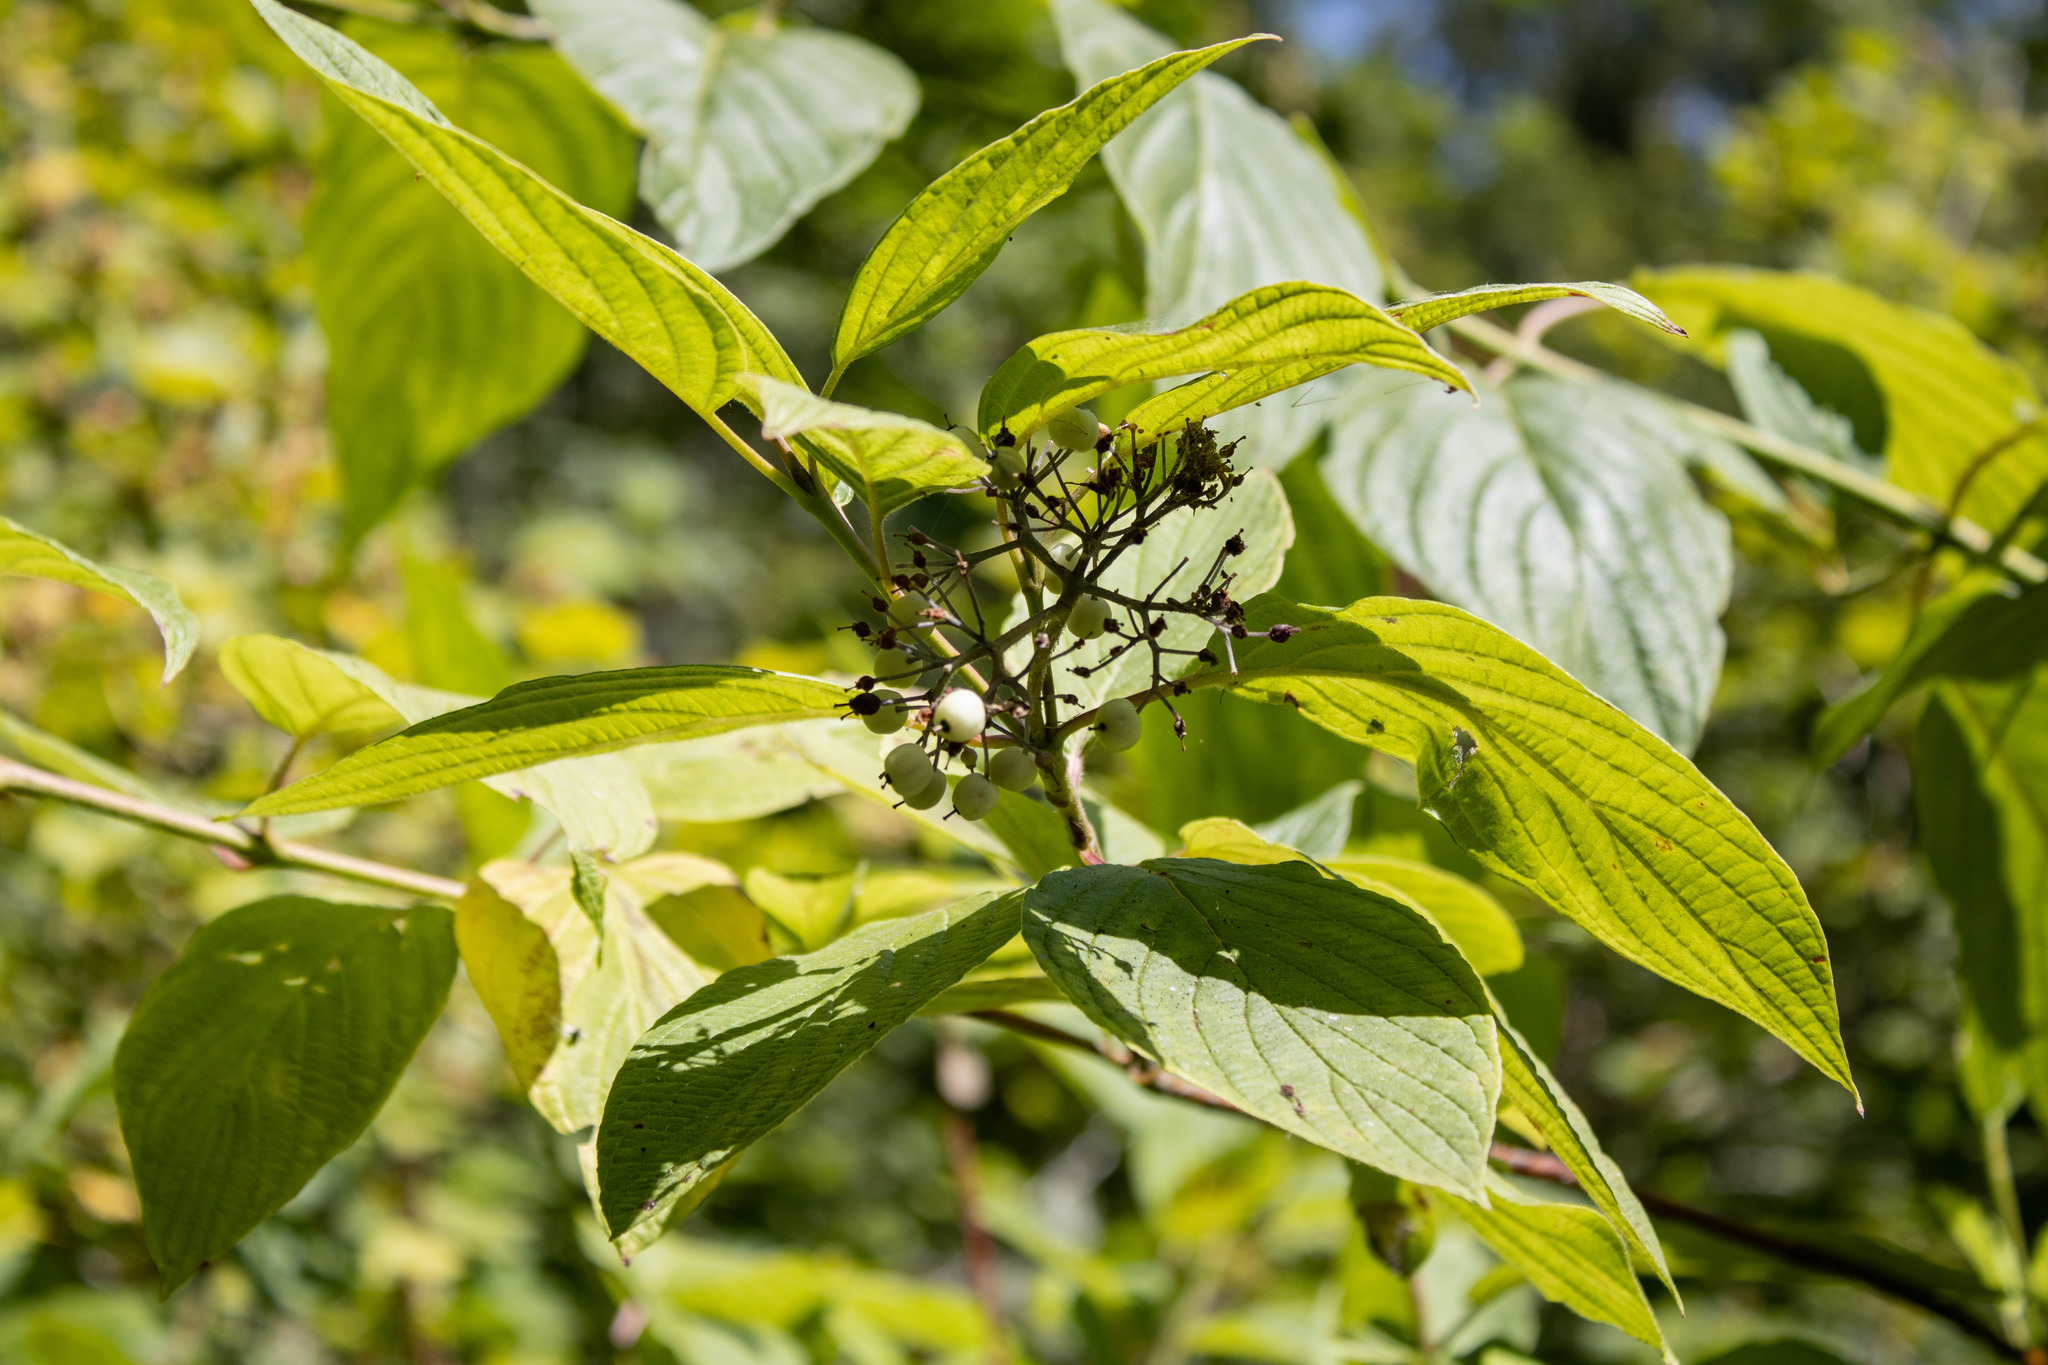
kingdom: Plantae
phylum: Tracheophyta
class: Magnoliopsida
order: Cornales
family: Cornaceae
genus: Cornus
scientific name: Cornus sericea
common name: Red-osier dogwood
